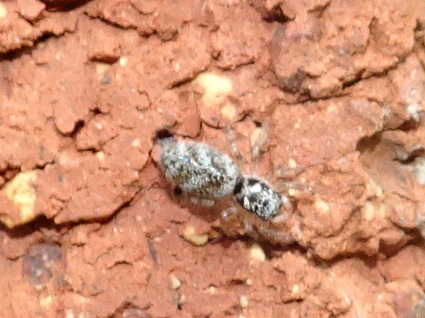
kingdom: Animalia
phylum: Arthropoda
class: Arachnida
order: Araneae
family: Salticidae
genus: Salticus
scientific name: Salticus scenicus
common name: Zebra jumper
